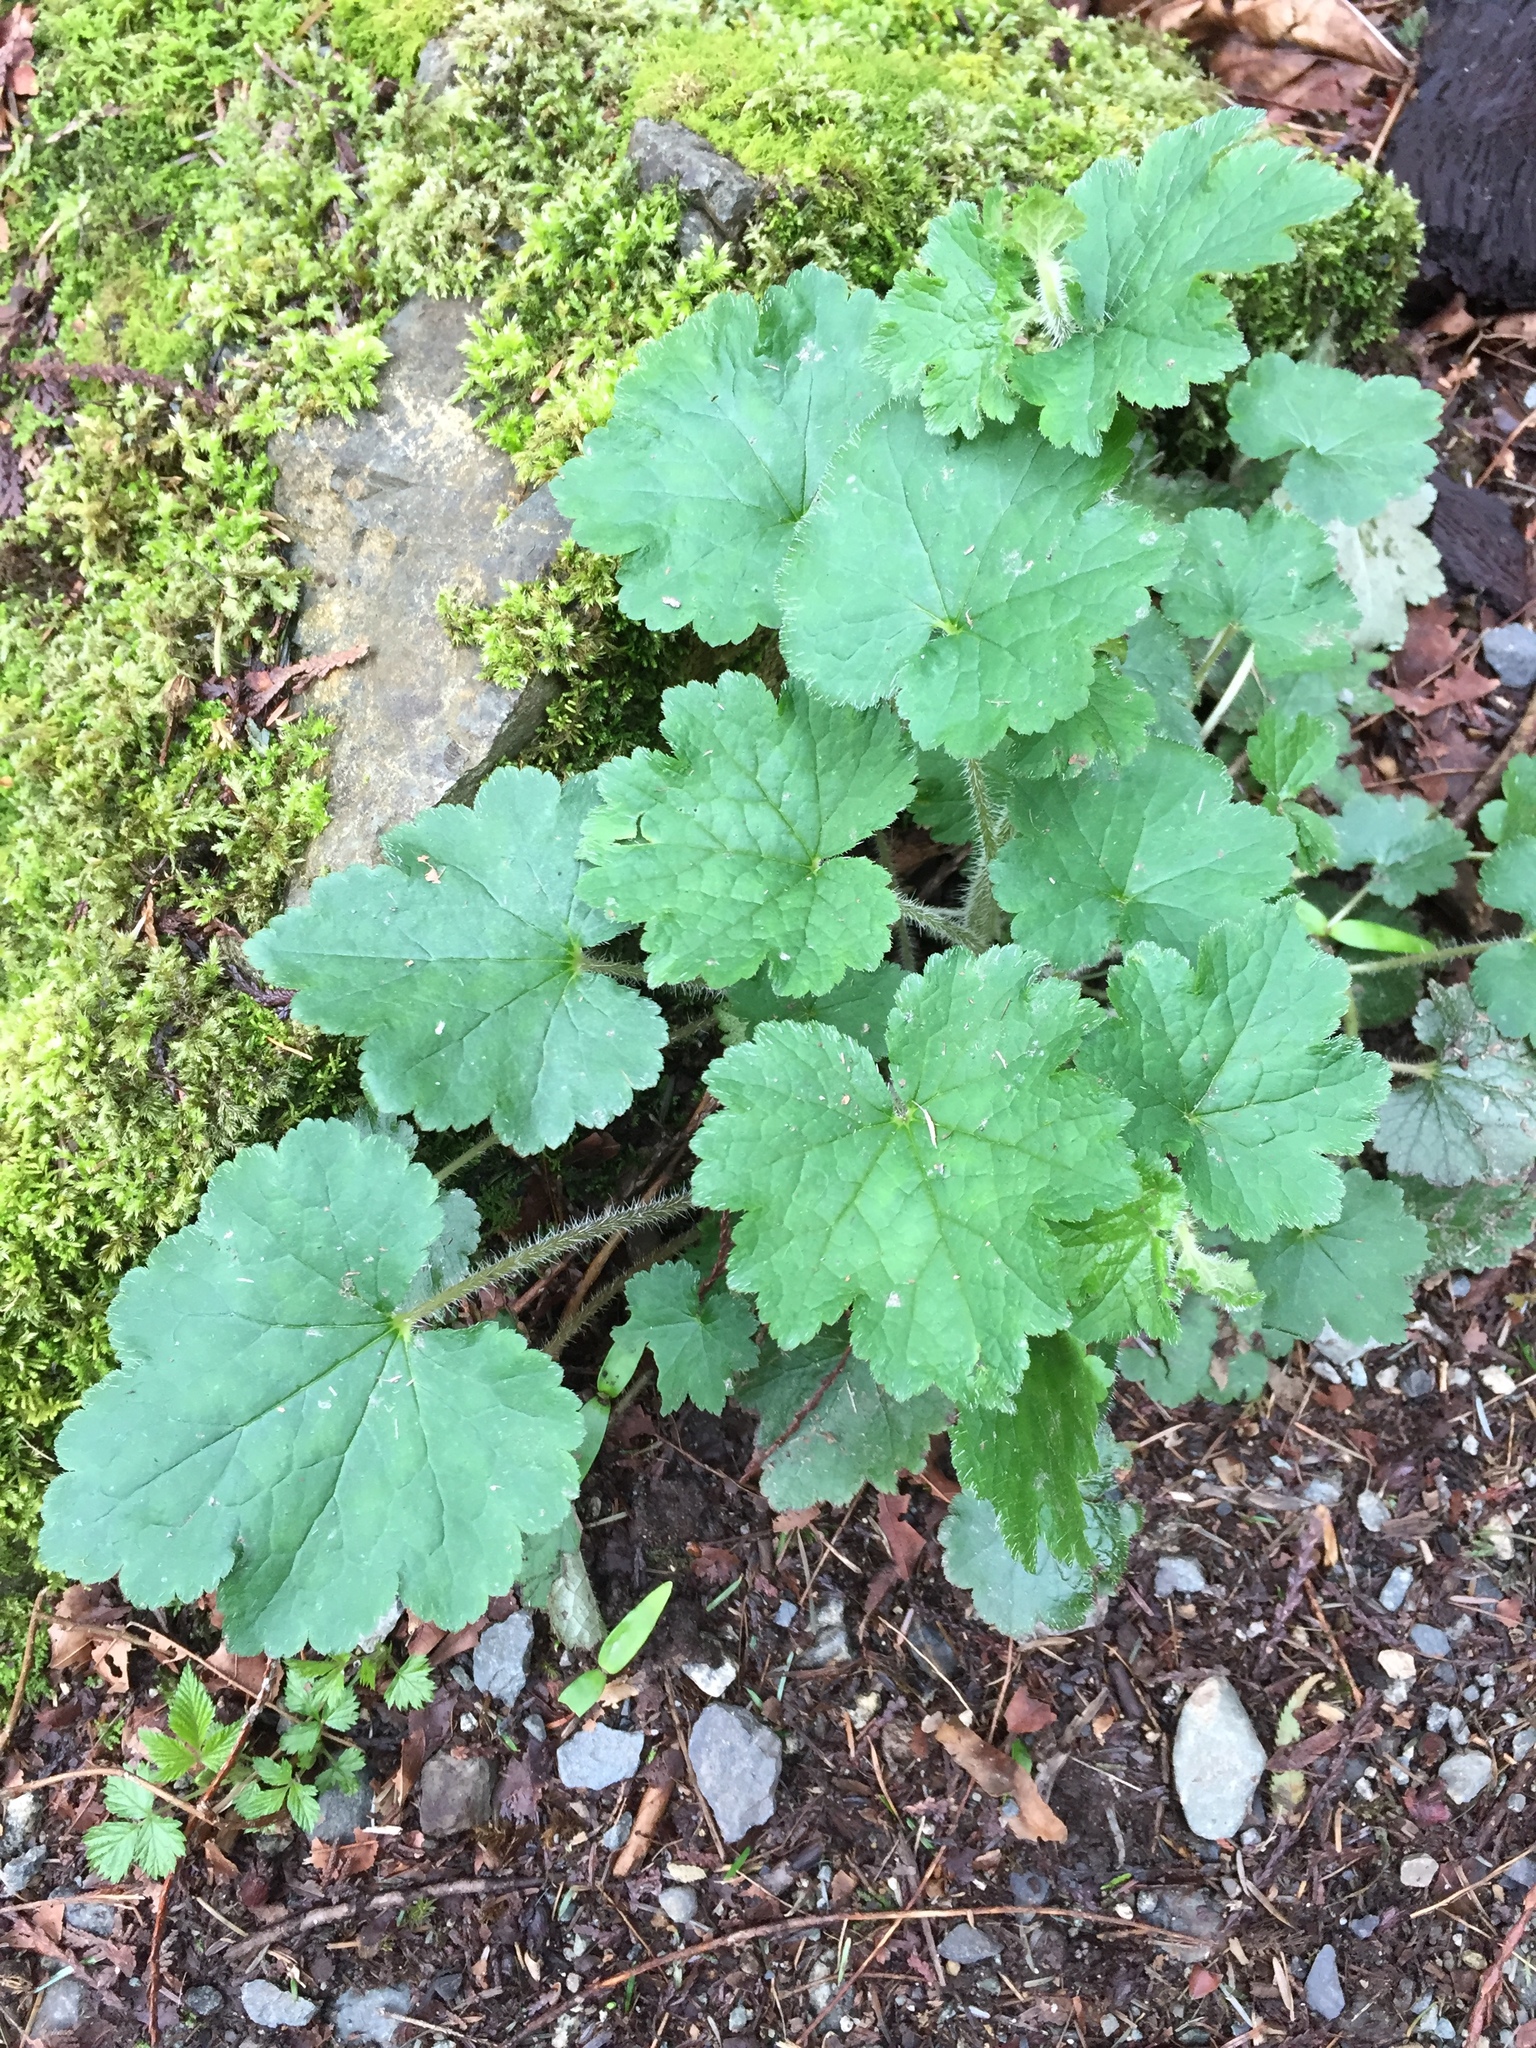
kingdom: Plantae
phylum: Tracheophyta
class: Magnoliopsida
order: Saxifragales
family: Saxifragaceae
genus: Tellima
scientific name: Tellima grandiflora
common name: Fringecups
